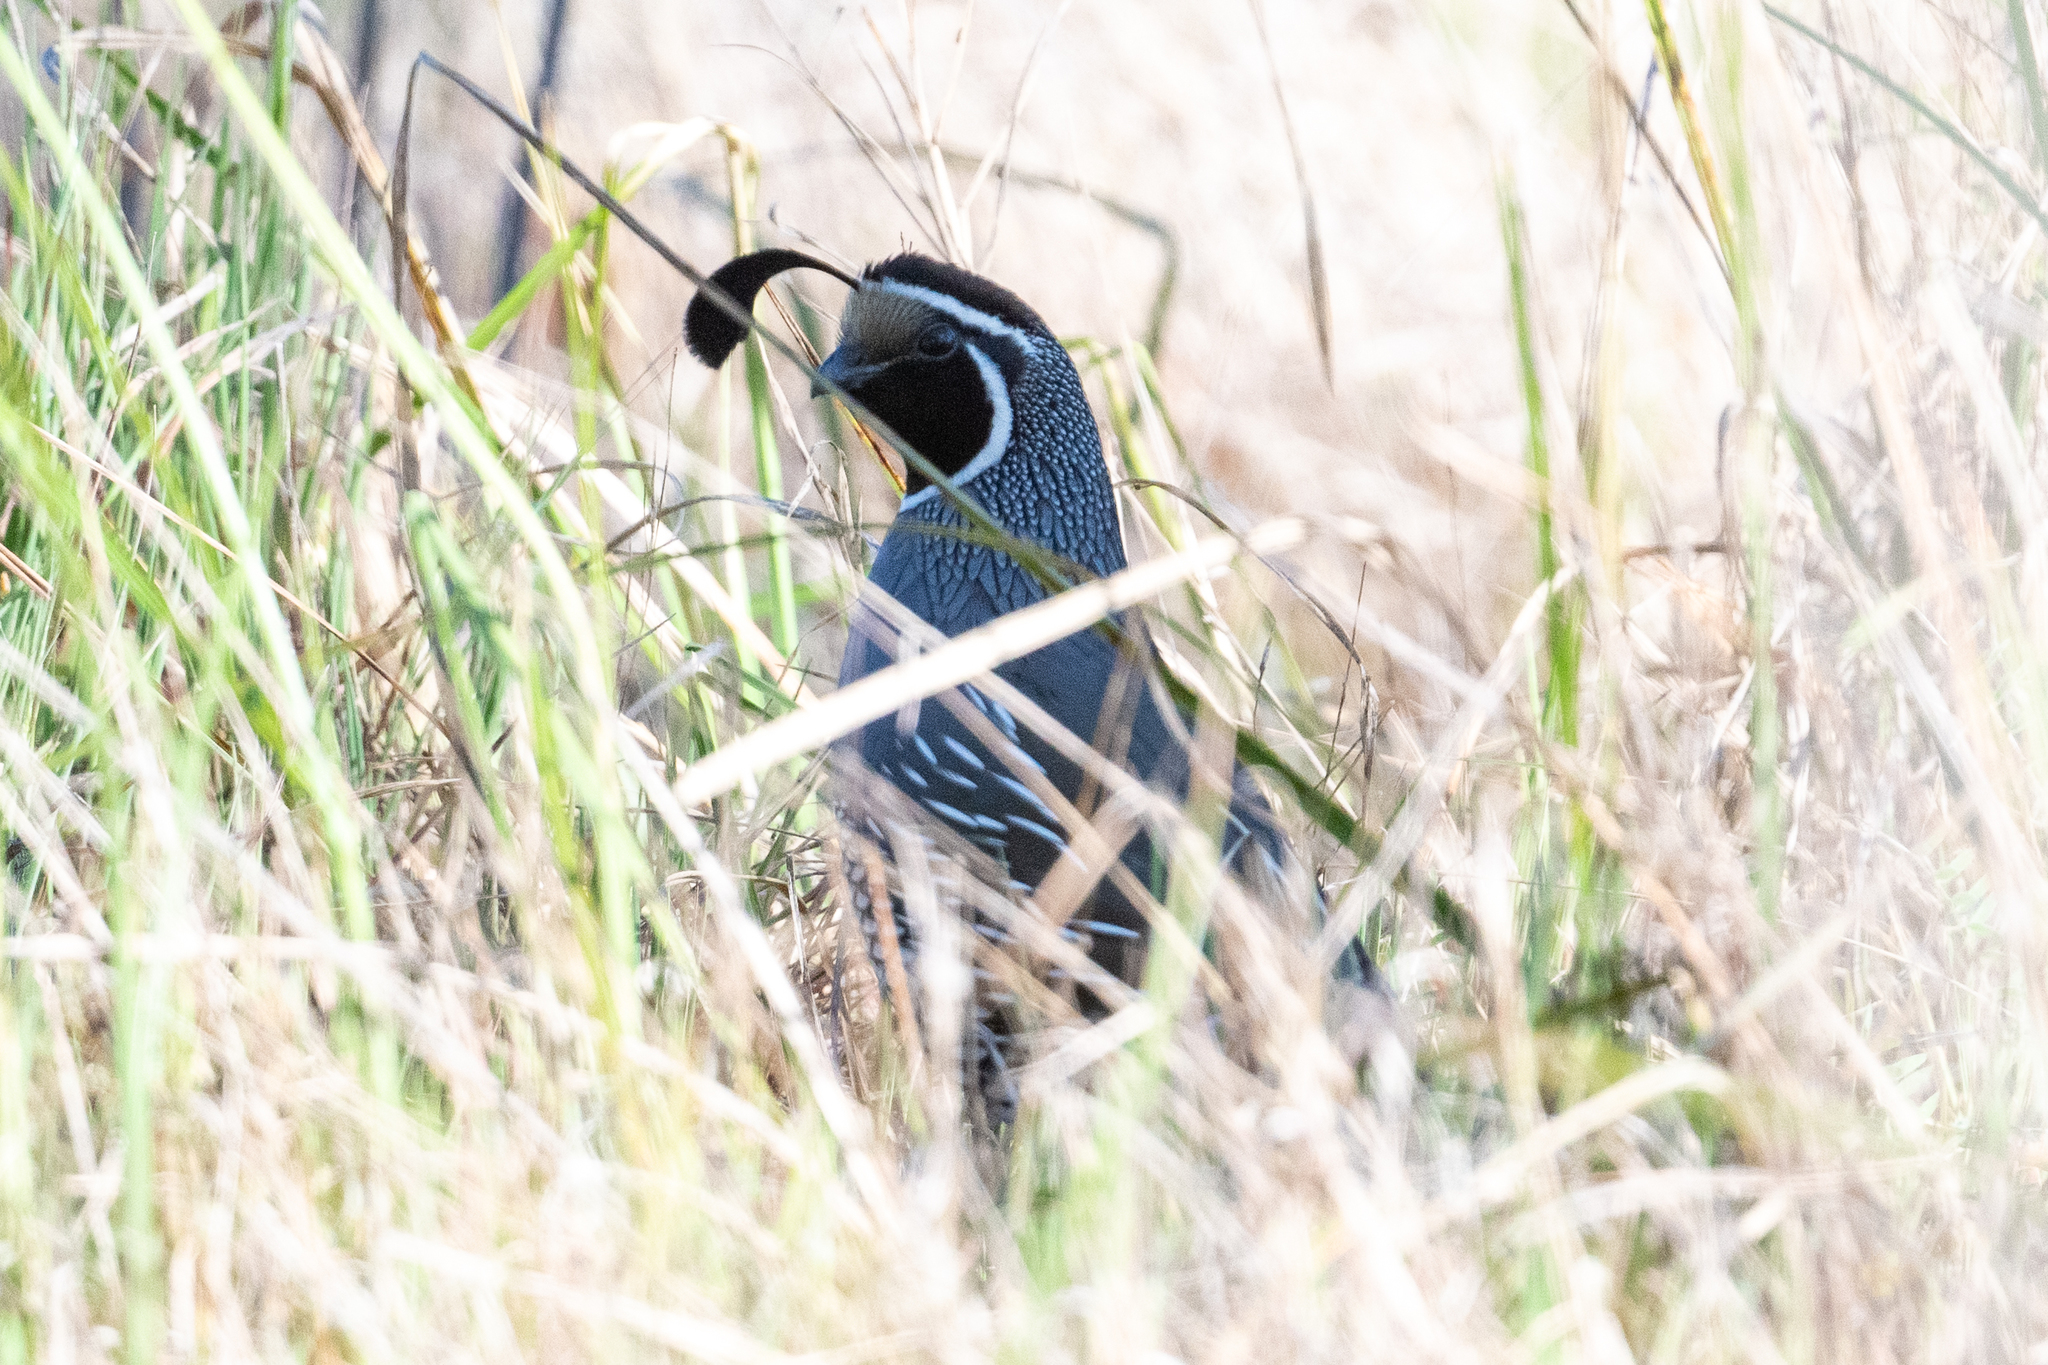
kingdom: Animalia
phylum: Chordata
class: Aves
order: Galliformes
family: Odontophoridae
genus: Callipepla
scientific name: Callipepla californica
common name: California quail
